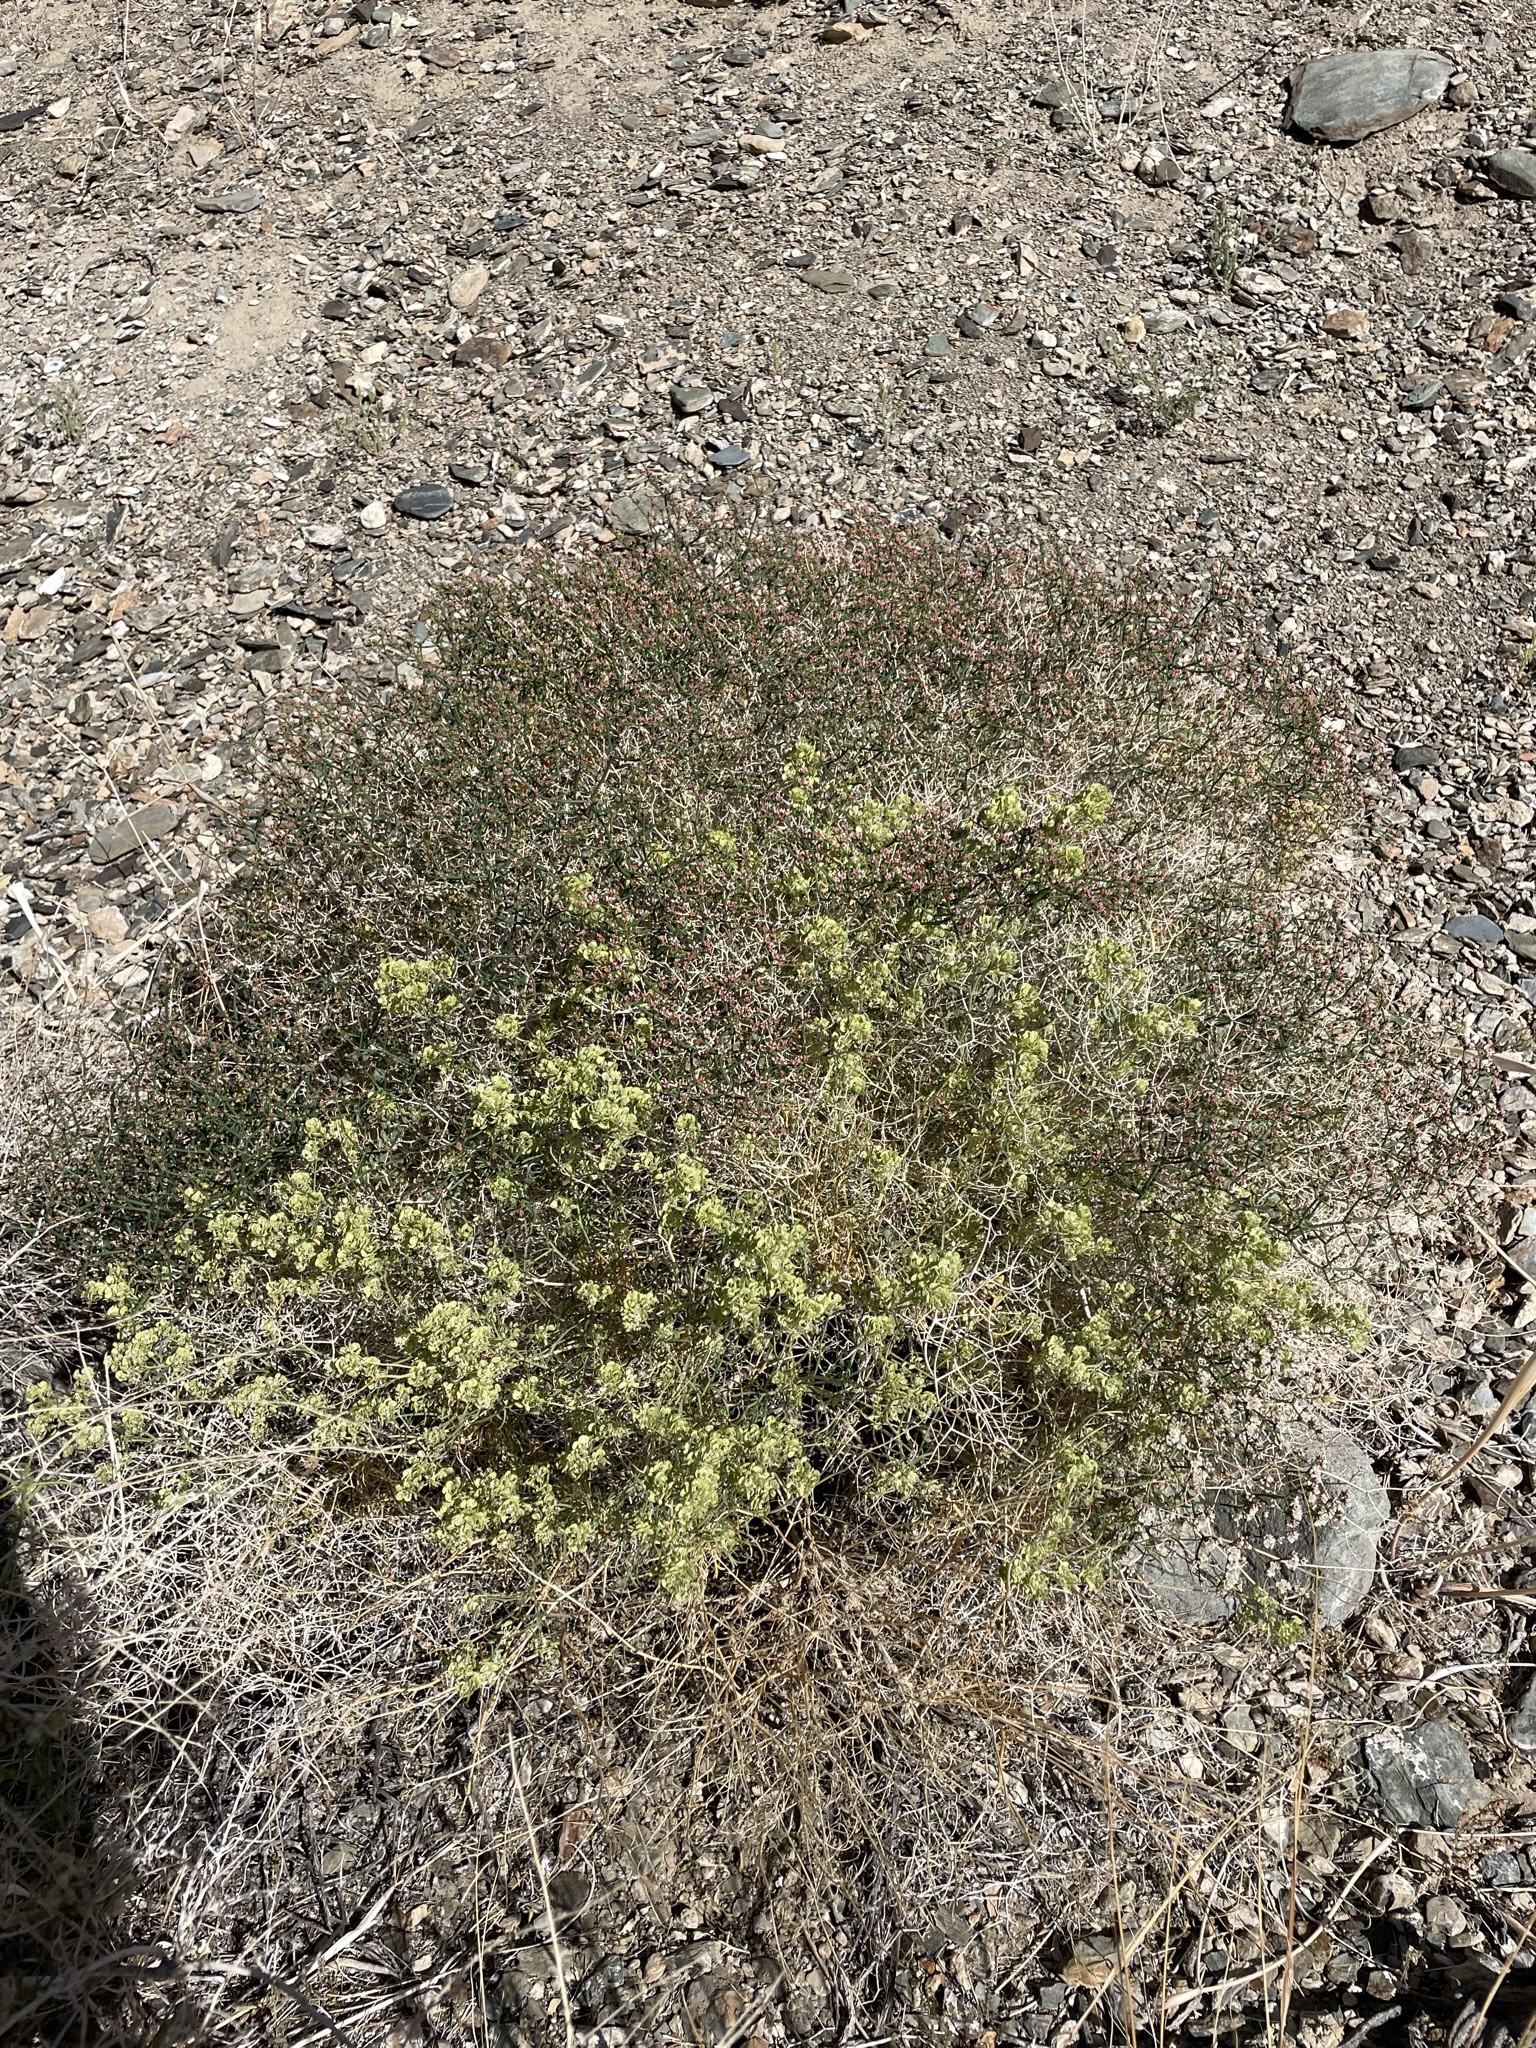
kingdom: Plantae
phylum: Tracheophyta
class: Magnoliopsida
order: Caryophyllales
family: Polygonaceae
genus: Eriogonum
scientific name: Eriogonum heermannii
